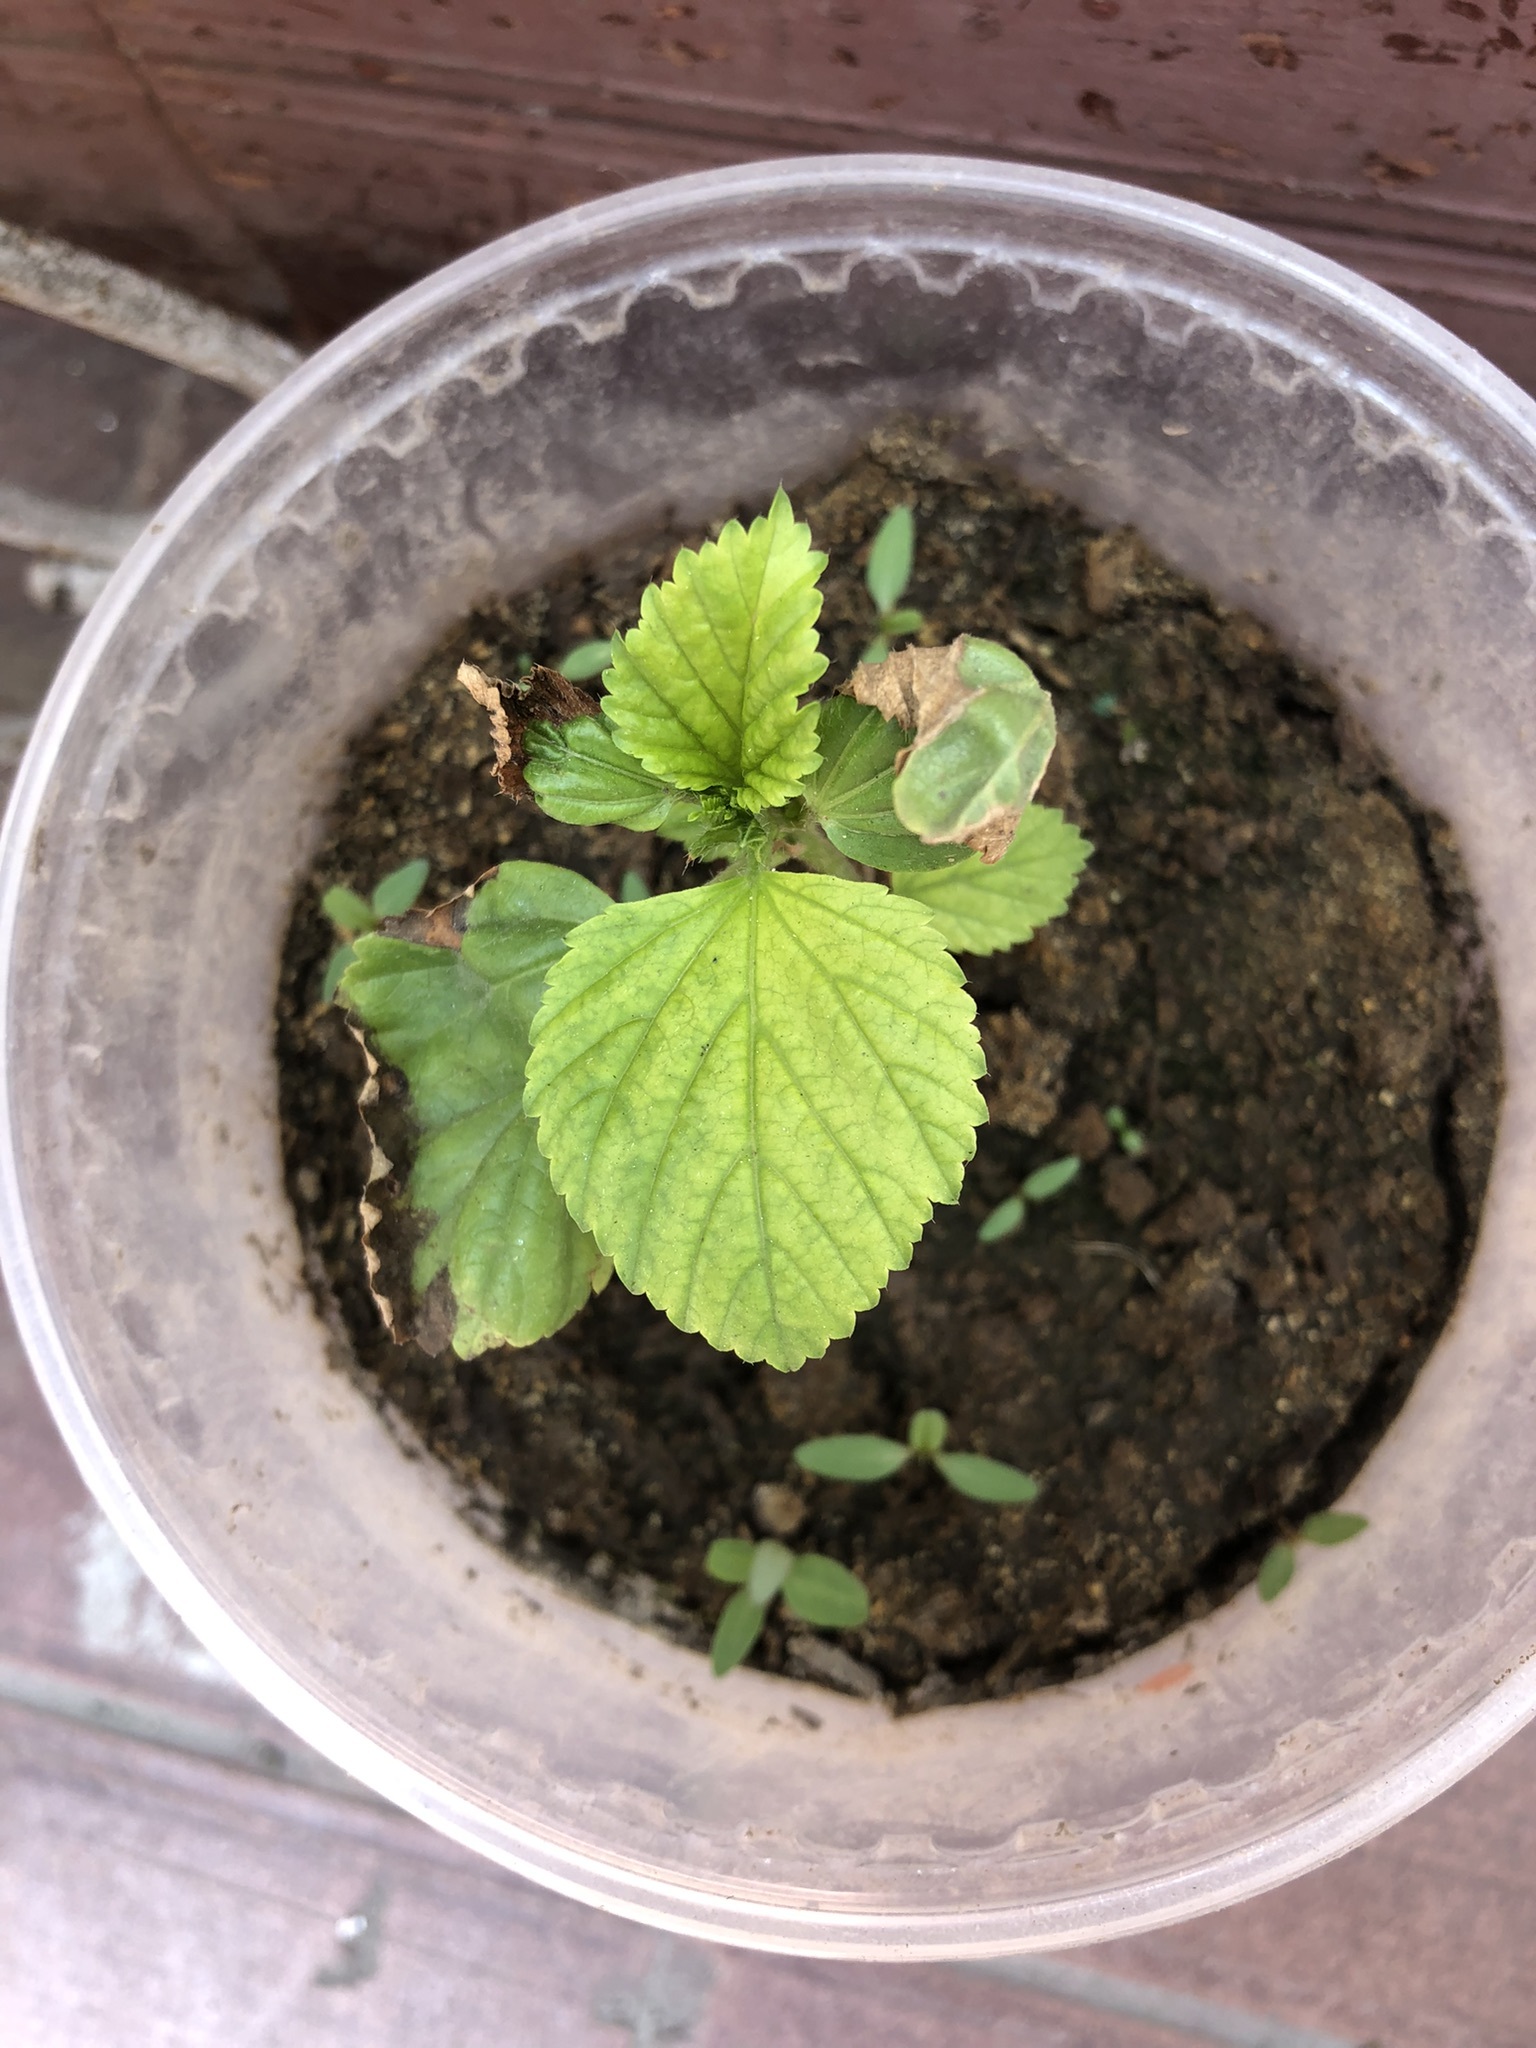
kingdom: Plantae
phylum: Tracheophyta
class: Magnoliopsida
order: Malvales
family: Malvaceae
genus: Malvastrum
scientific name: Malvastrum coromandelianum
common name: Threelobe false mallow
